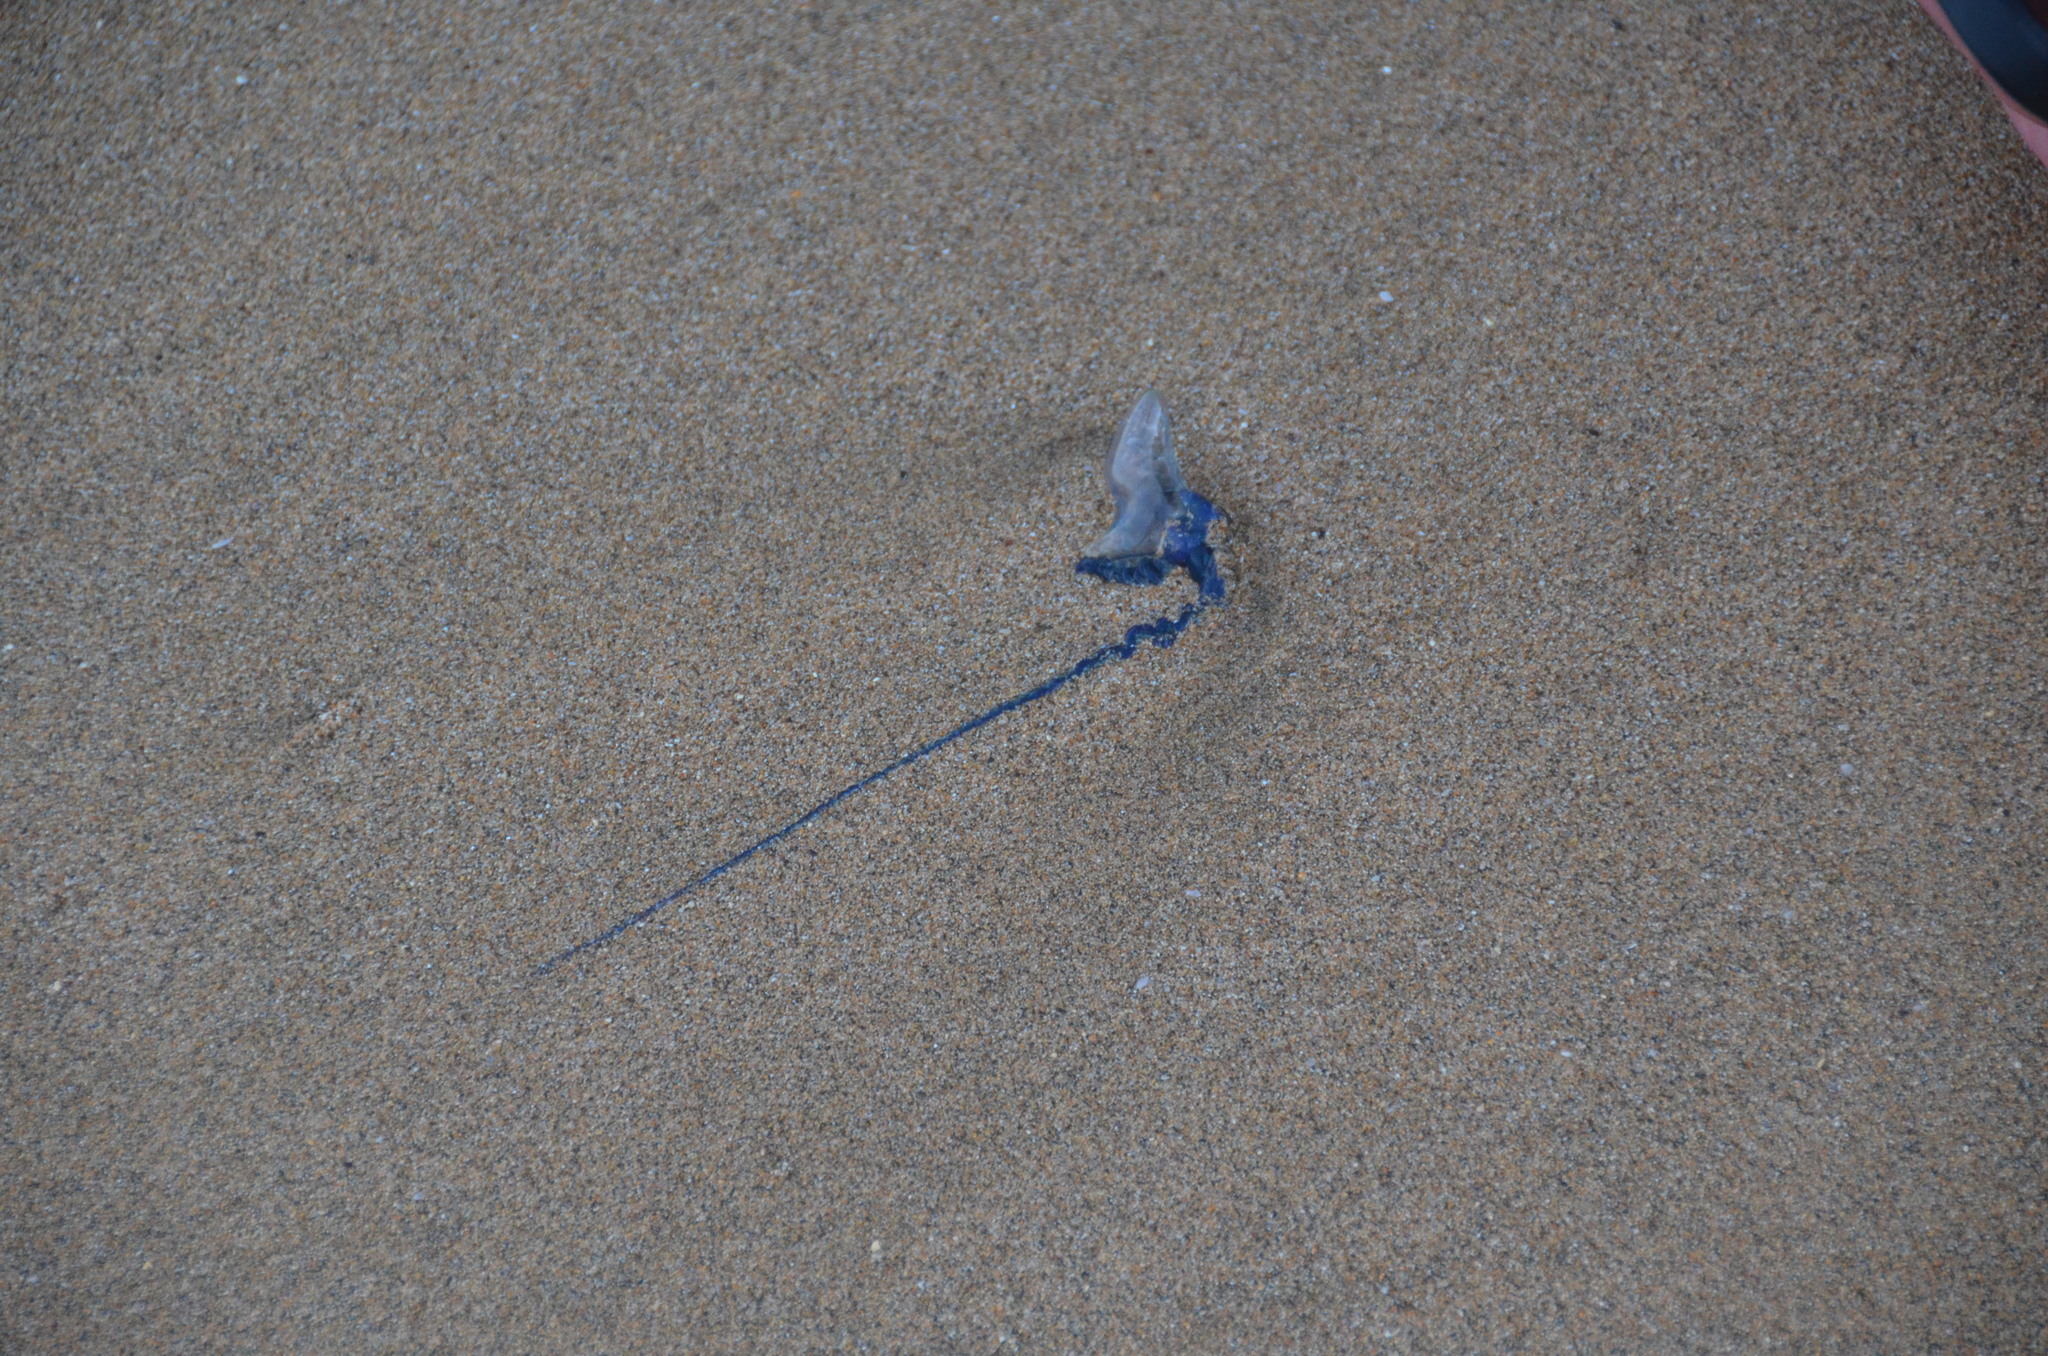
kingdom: Animalia
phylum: Cnidaria
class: Hydrozoa
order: Siphonophorae
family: Physaliidae
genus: Physalia
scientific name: Physalia physalis
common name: Portuguese man-of-war
